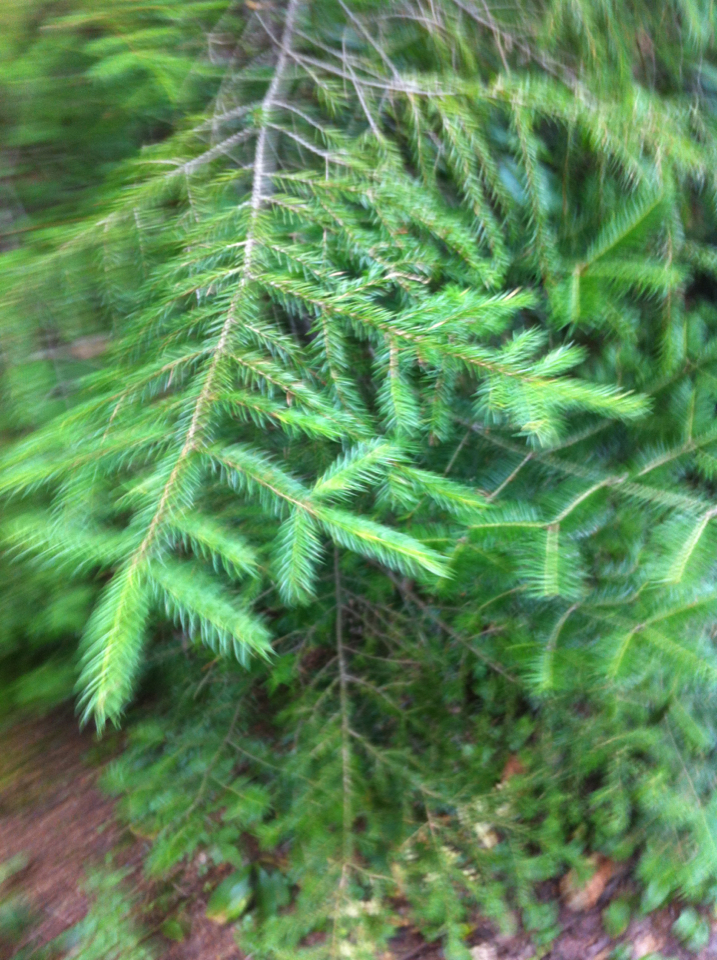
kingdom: Plantae
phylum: Tracheophyta
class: Pinopsida
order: Pinales
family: Pinaceae
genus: Picea
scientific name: Picea rubens
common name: Red spruce
